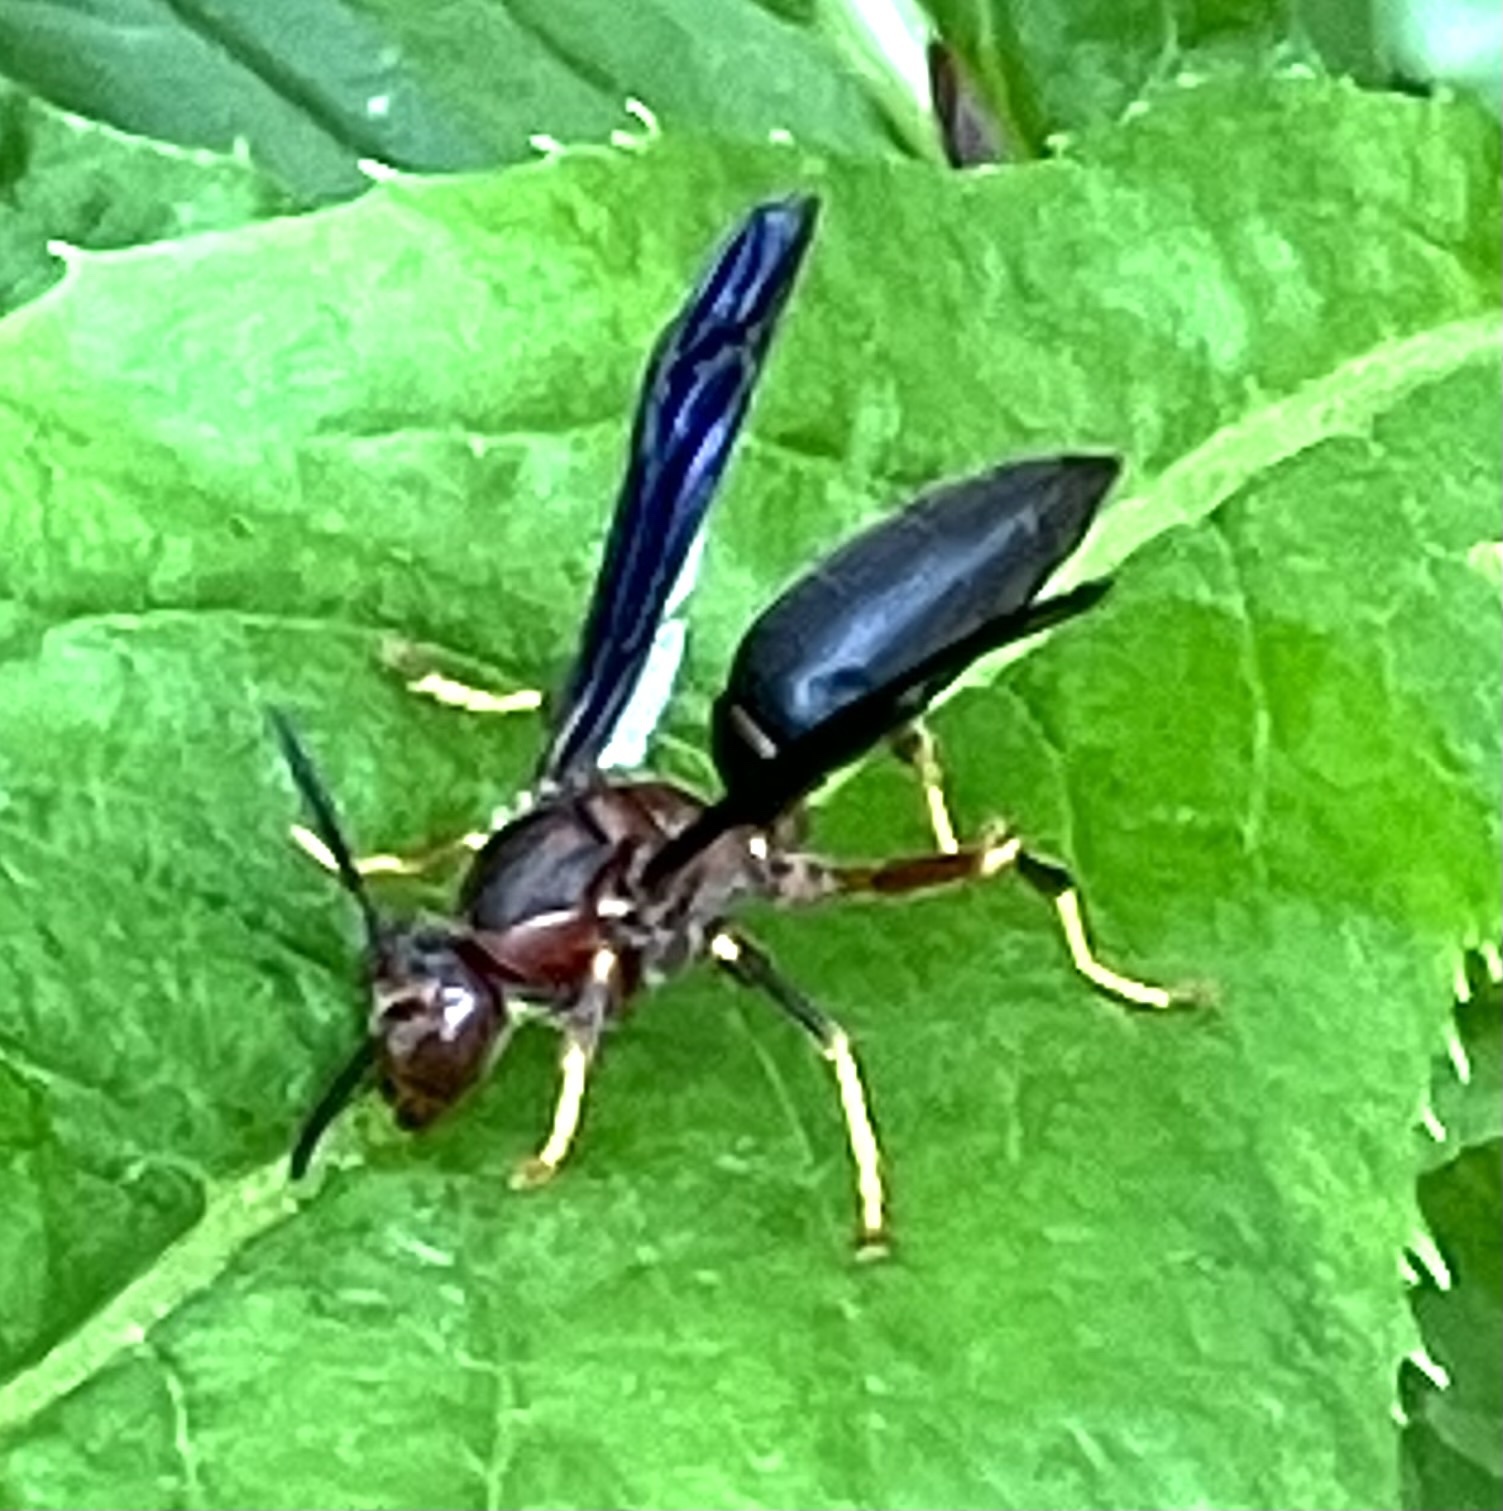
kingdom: Animalia
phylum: Arthropoda
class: Insecta
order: Hymenoptera
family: Eumenidae
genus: Polistes
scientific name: Polistes metricus
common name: Metric paper wasp
